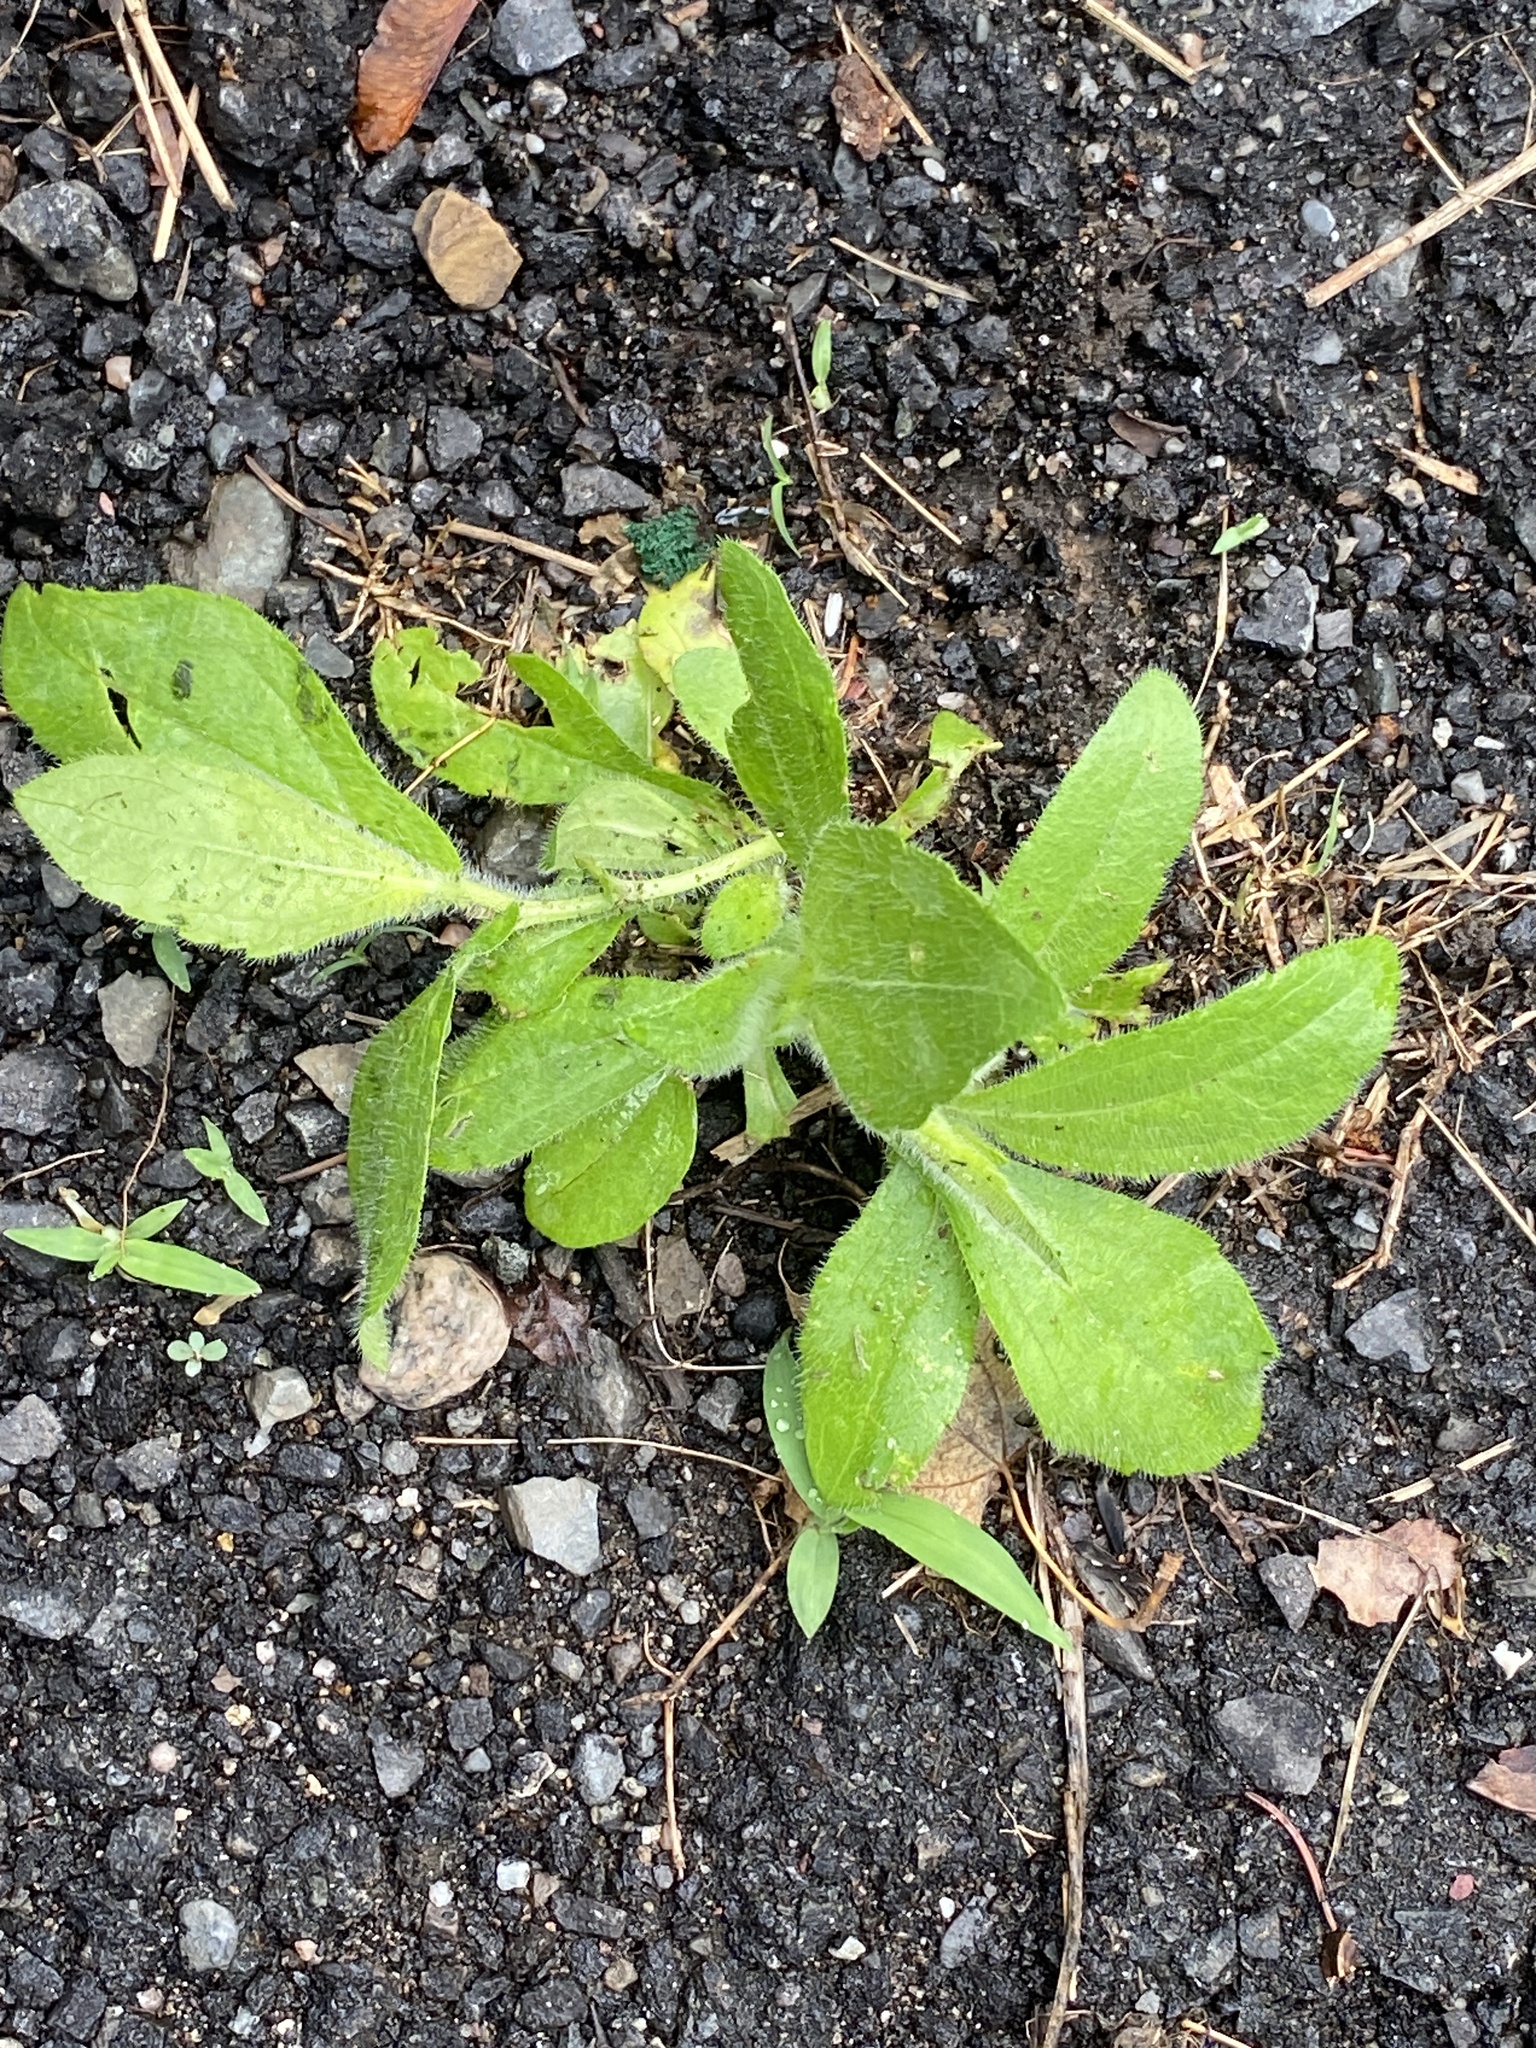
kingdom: Plantae
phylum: Tracheophyta
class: Magnoliopsida
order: Asterales
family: Asteraceae
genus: Rudbeckia
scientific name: Rudbeckia hirta
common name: Black-eyed-susan
